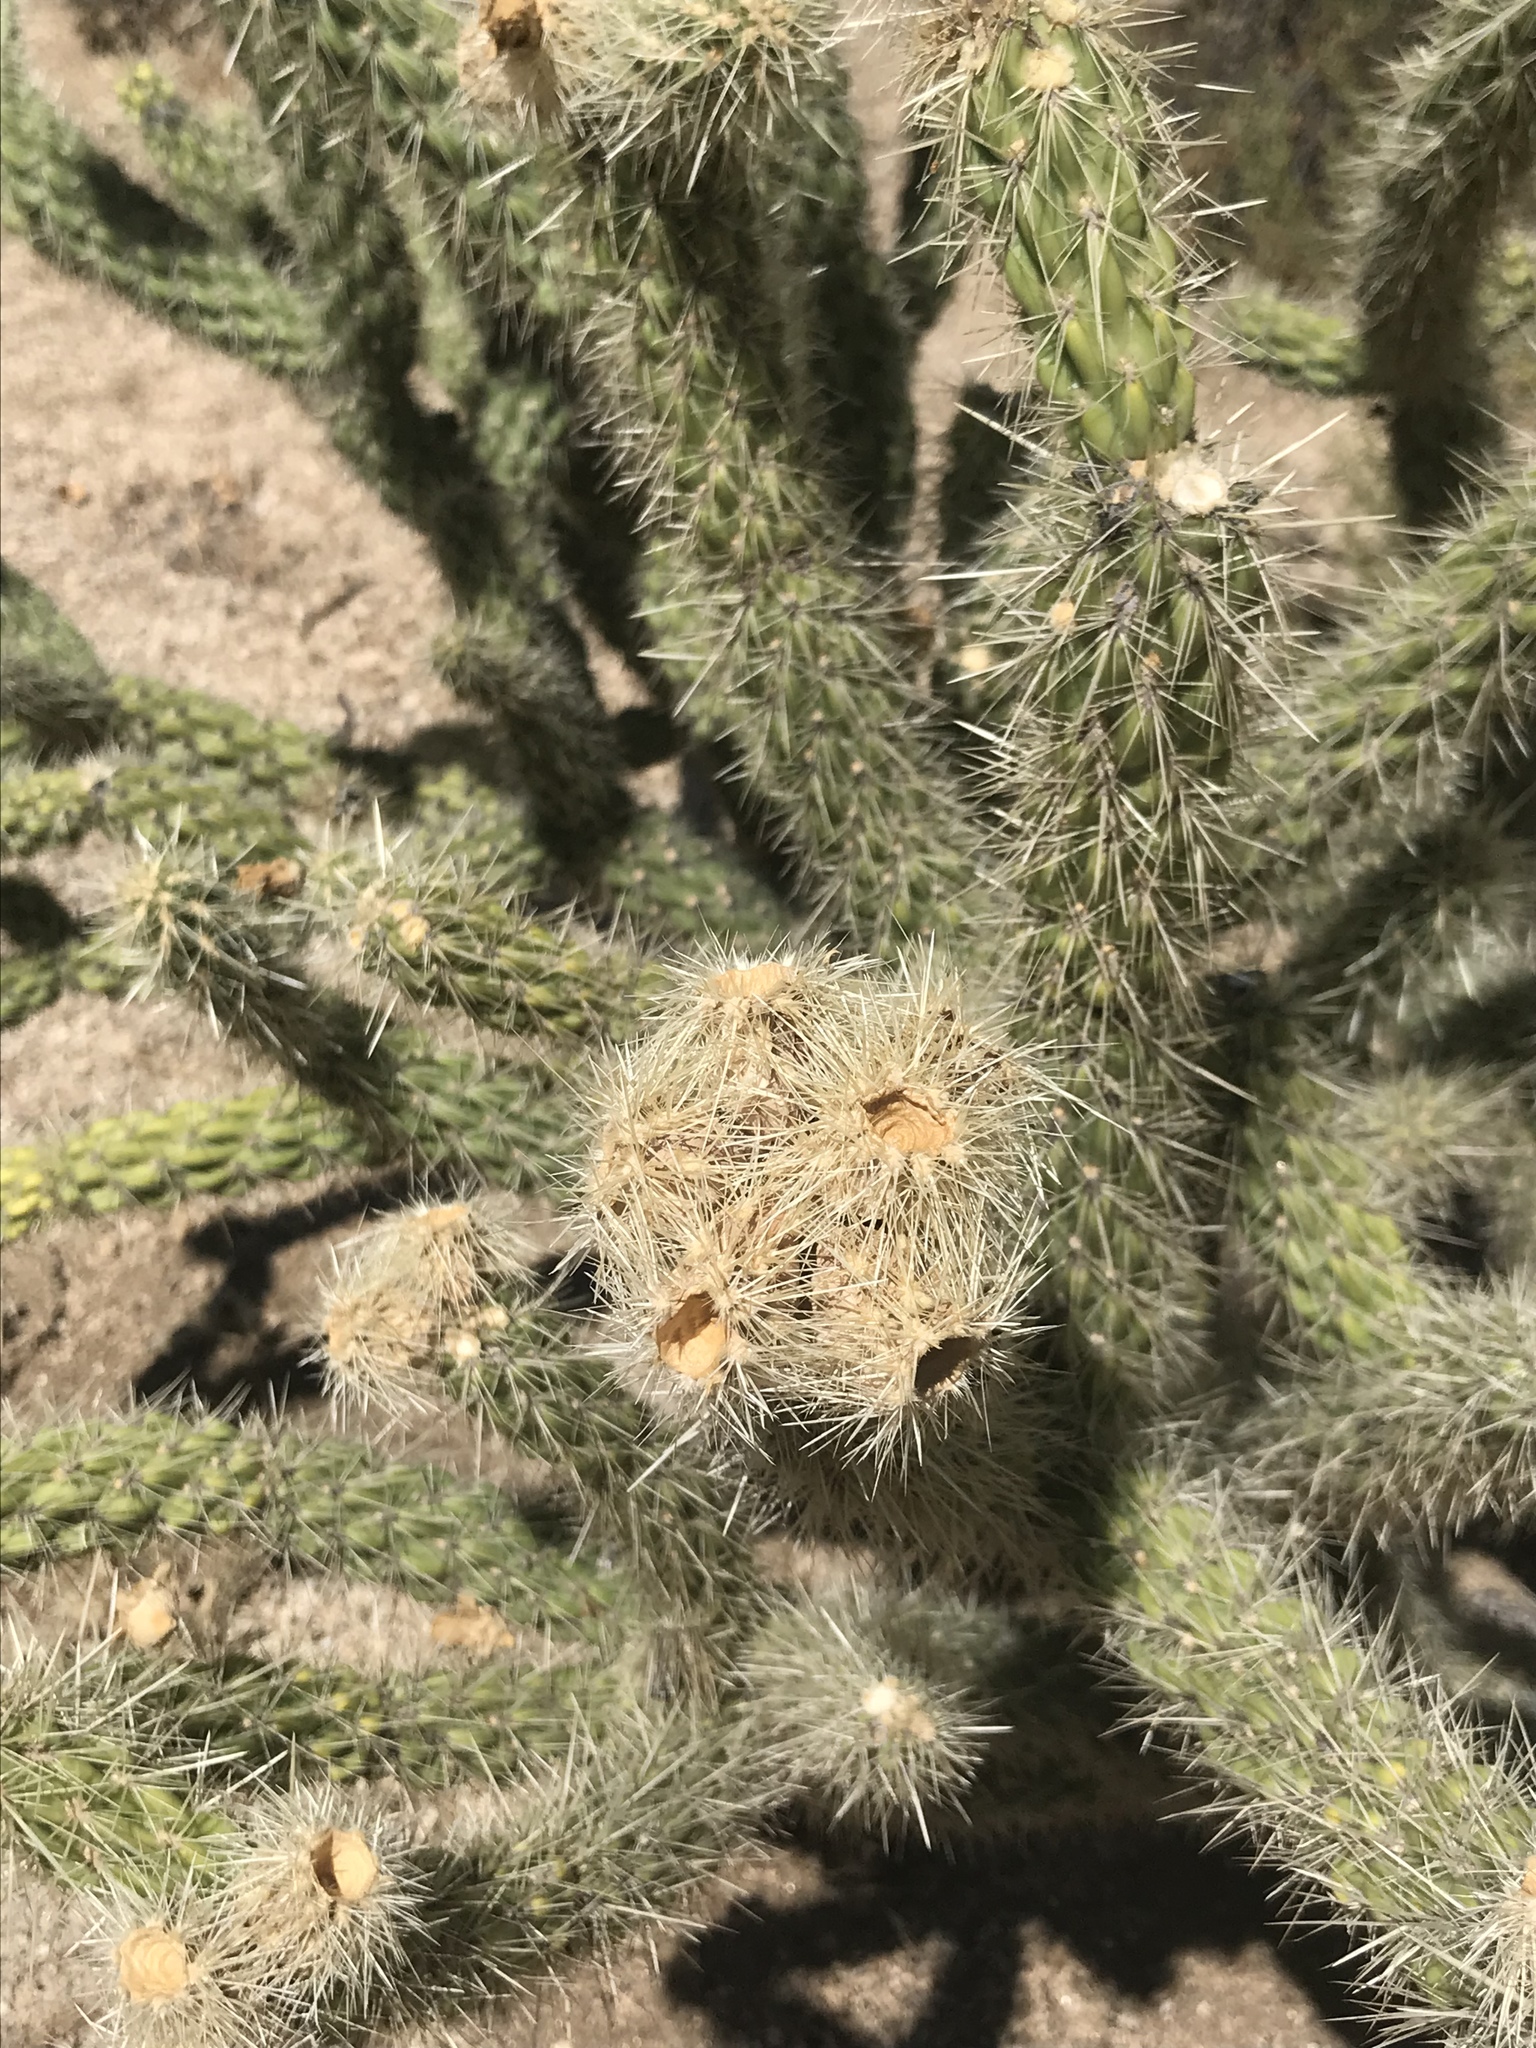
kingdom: Plantae
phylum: Tracheophyta
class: Magnoliopsida
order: Caryophyllales
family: Cactaceae
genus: Cylindropuntia
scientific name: Cylindropuntia bernardina
